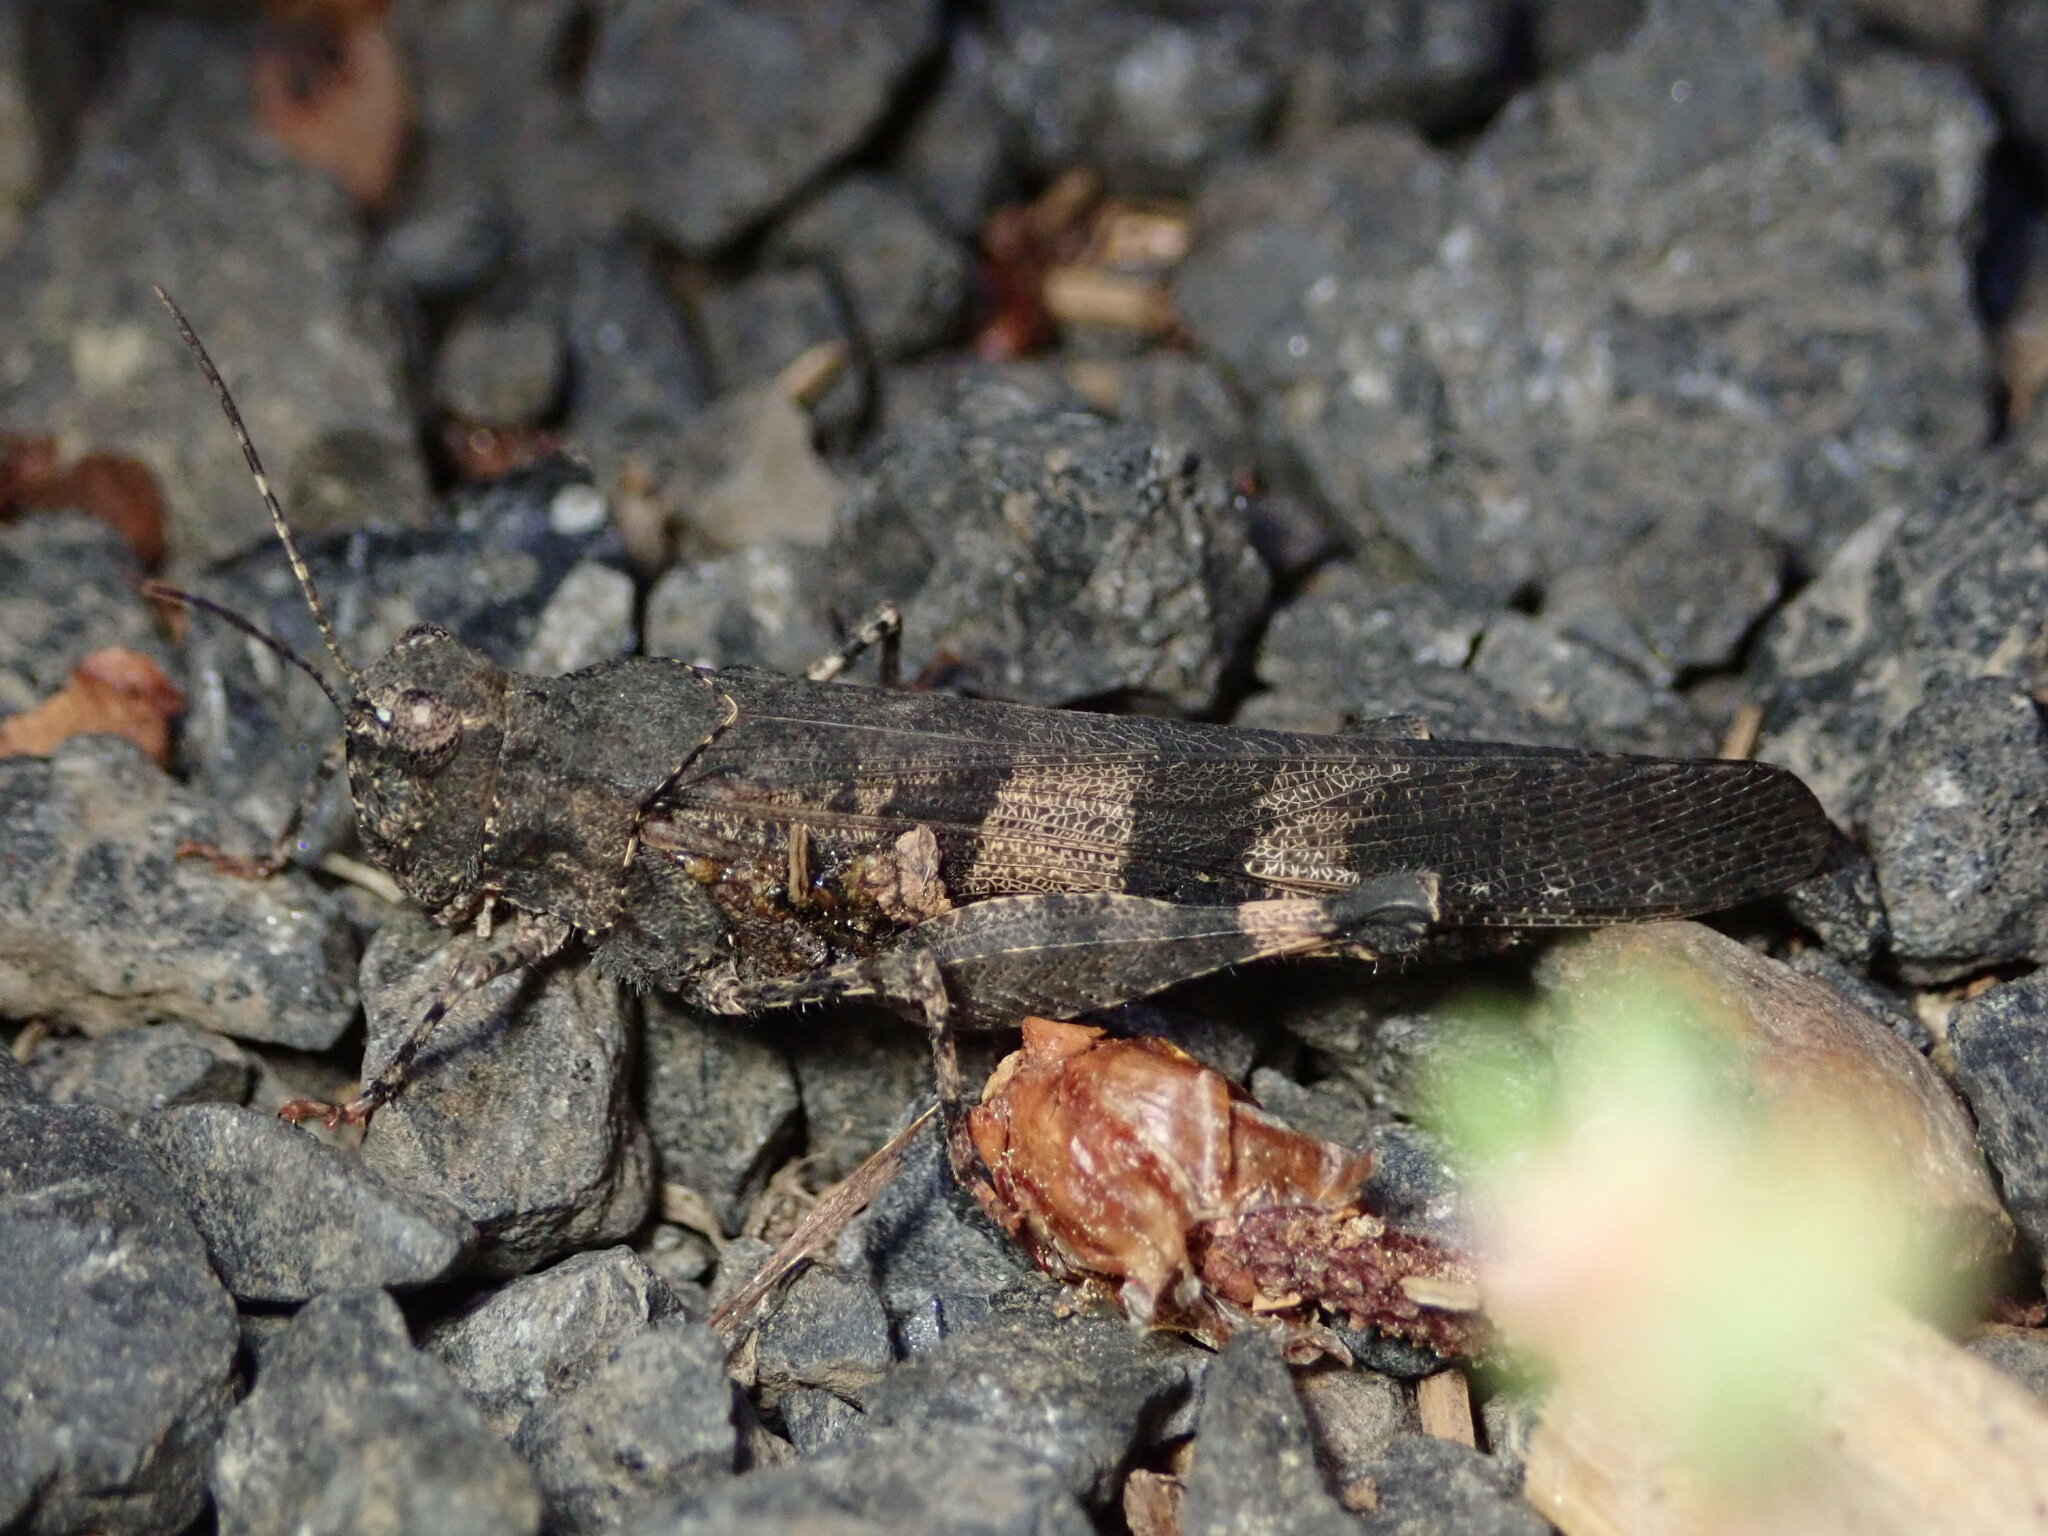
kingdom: Animalia
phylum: Arthropoda
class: Insecta
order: Orthoptera
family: Acrididae
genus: Trimerotropis
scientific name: Trimerotropis fontana
